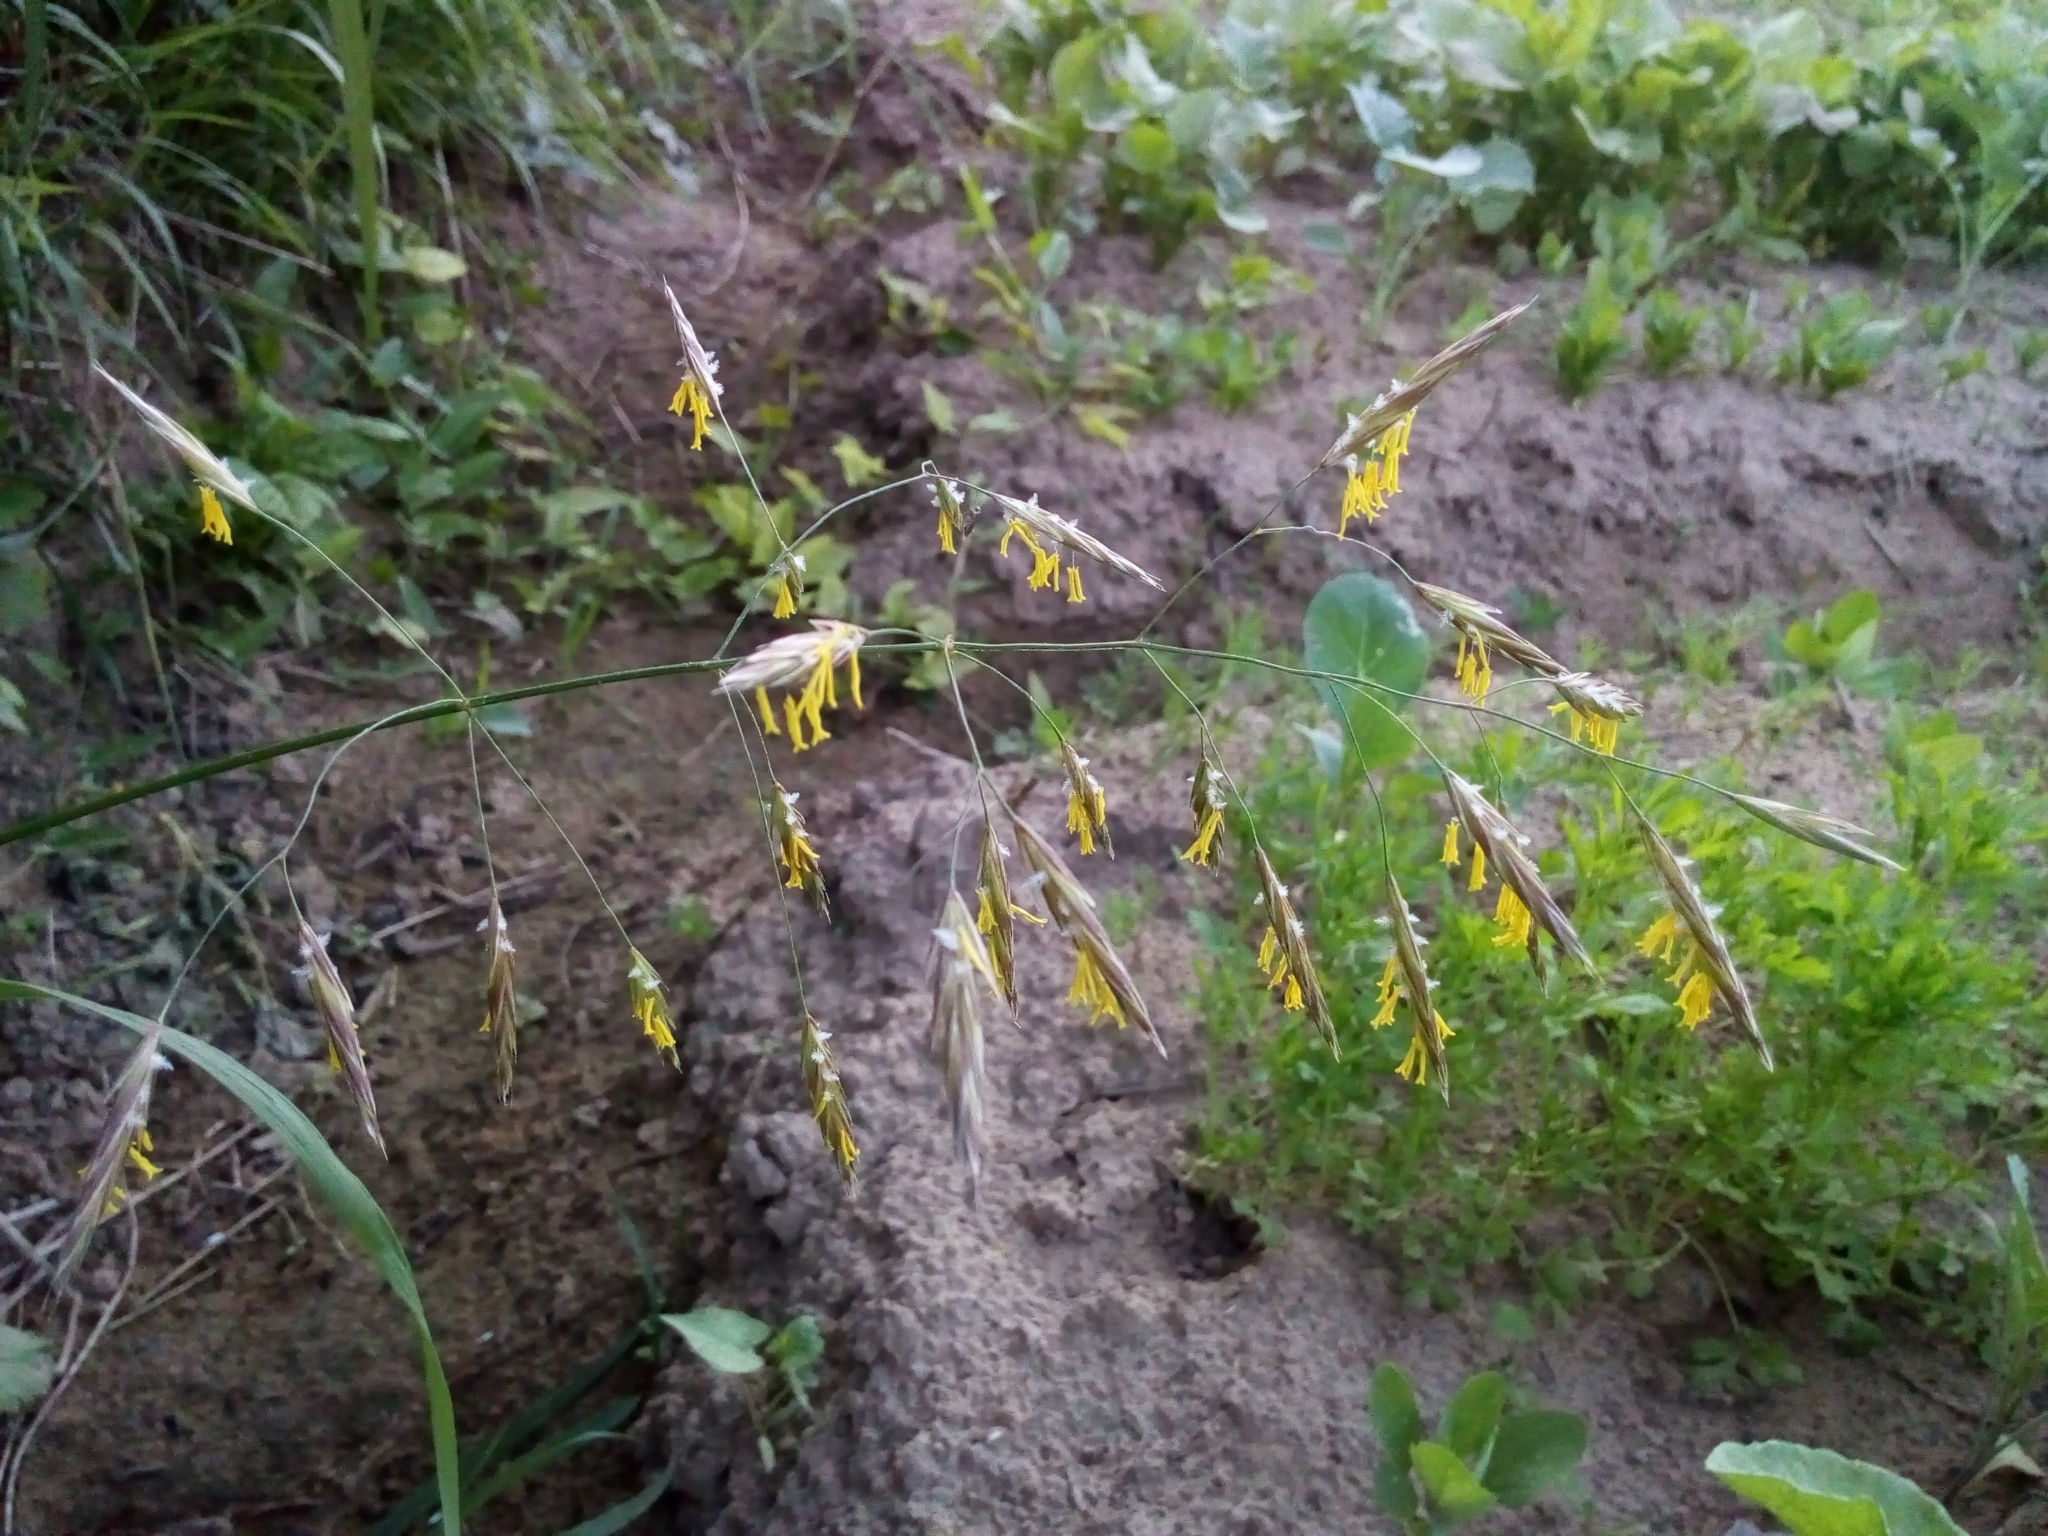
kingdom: Plantae
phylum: Tracheophyta
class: Liliopsida
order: Poales
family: Poaceae
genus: Bromus
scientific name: Bromus inermis
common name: Smooth brome
